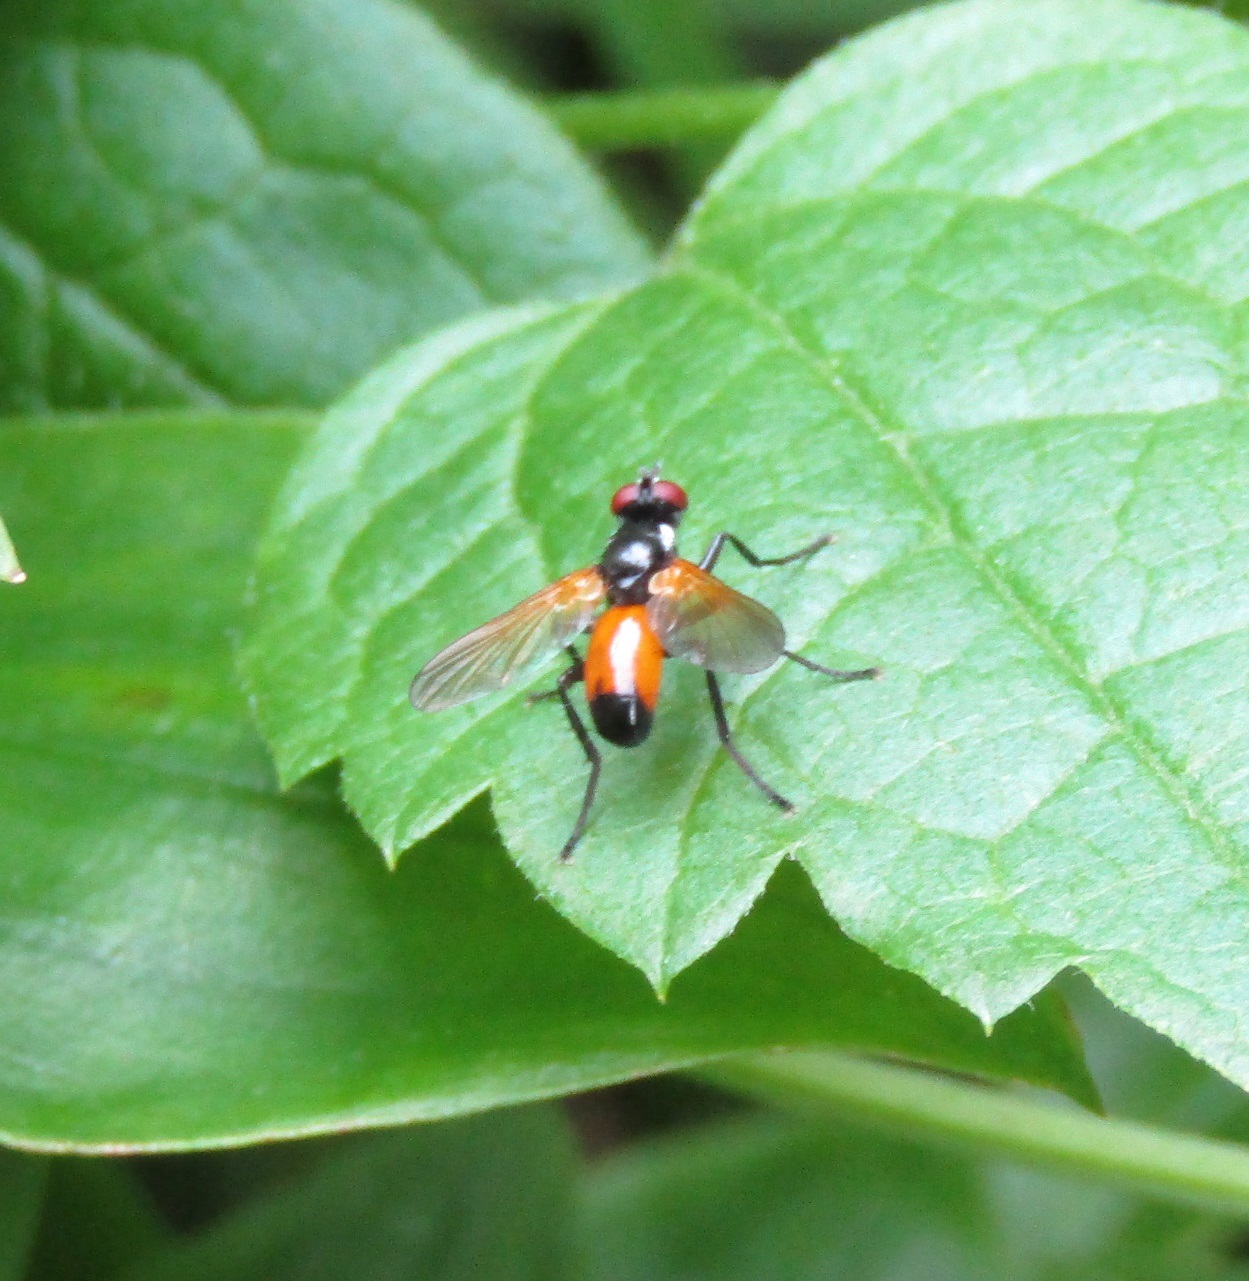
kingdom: Animalia
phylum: Arthropoda
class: Insecta
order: Diptera
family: Tachinidae
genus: Huttonobesseria
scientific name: Huttonobesseria verecunda
